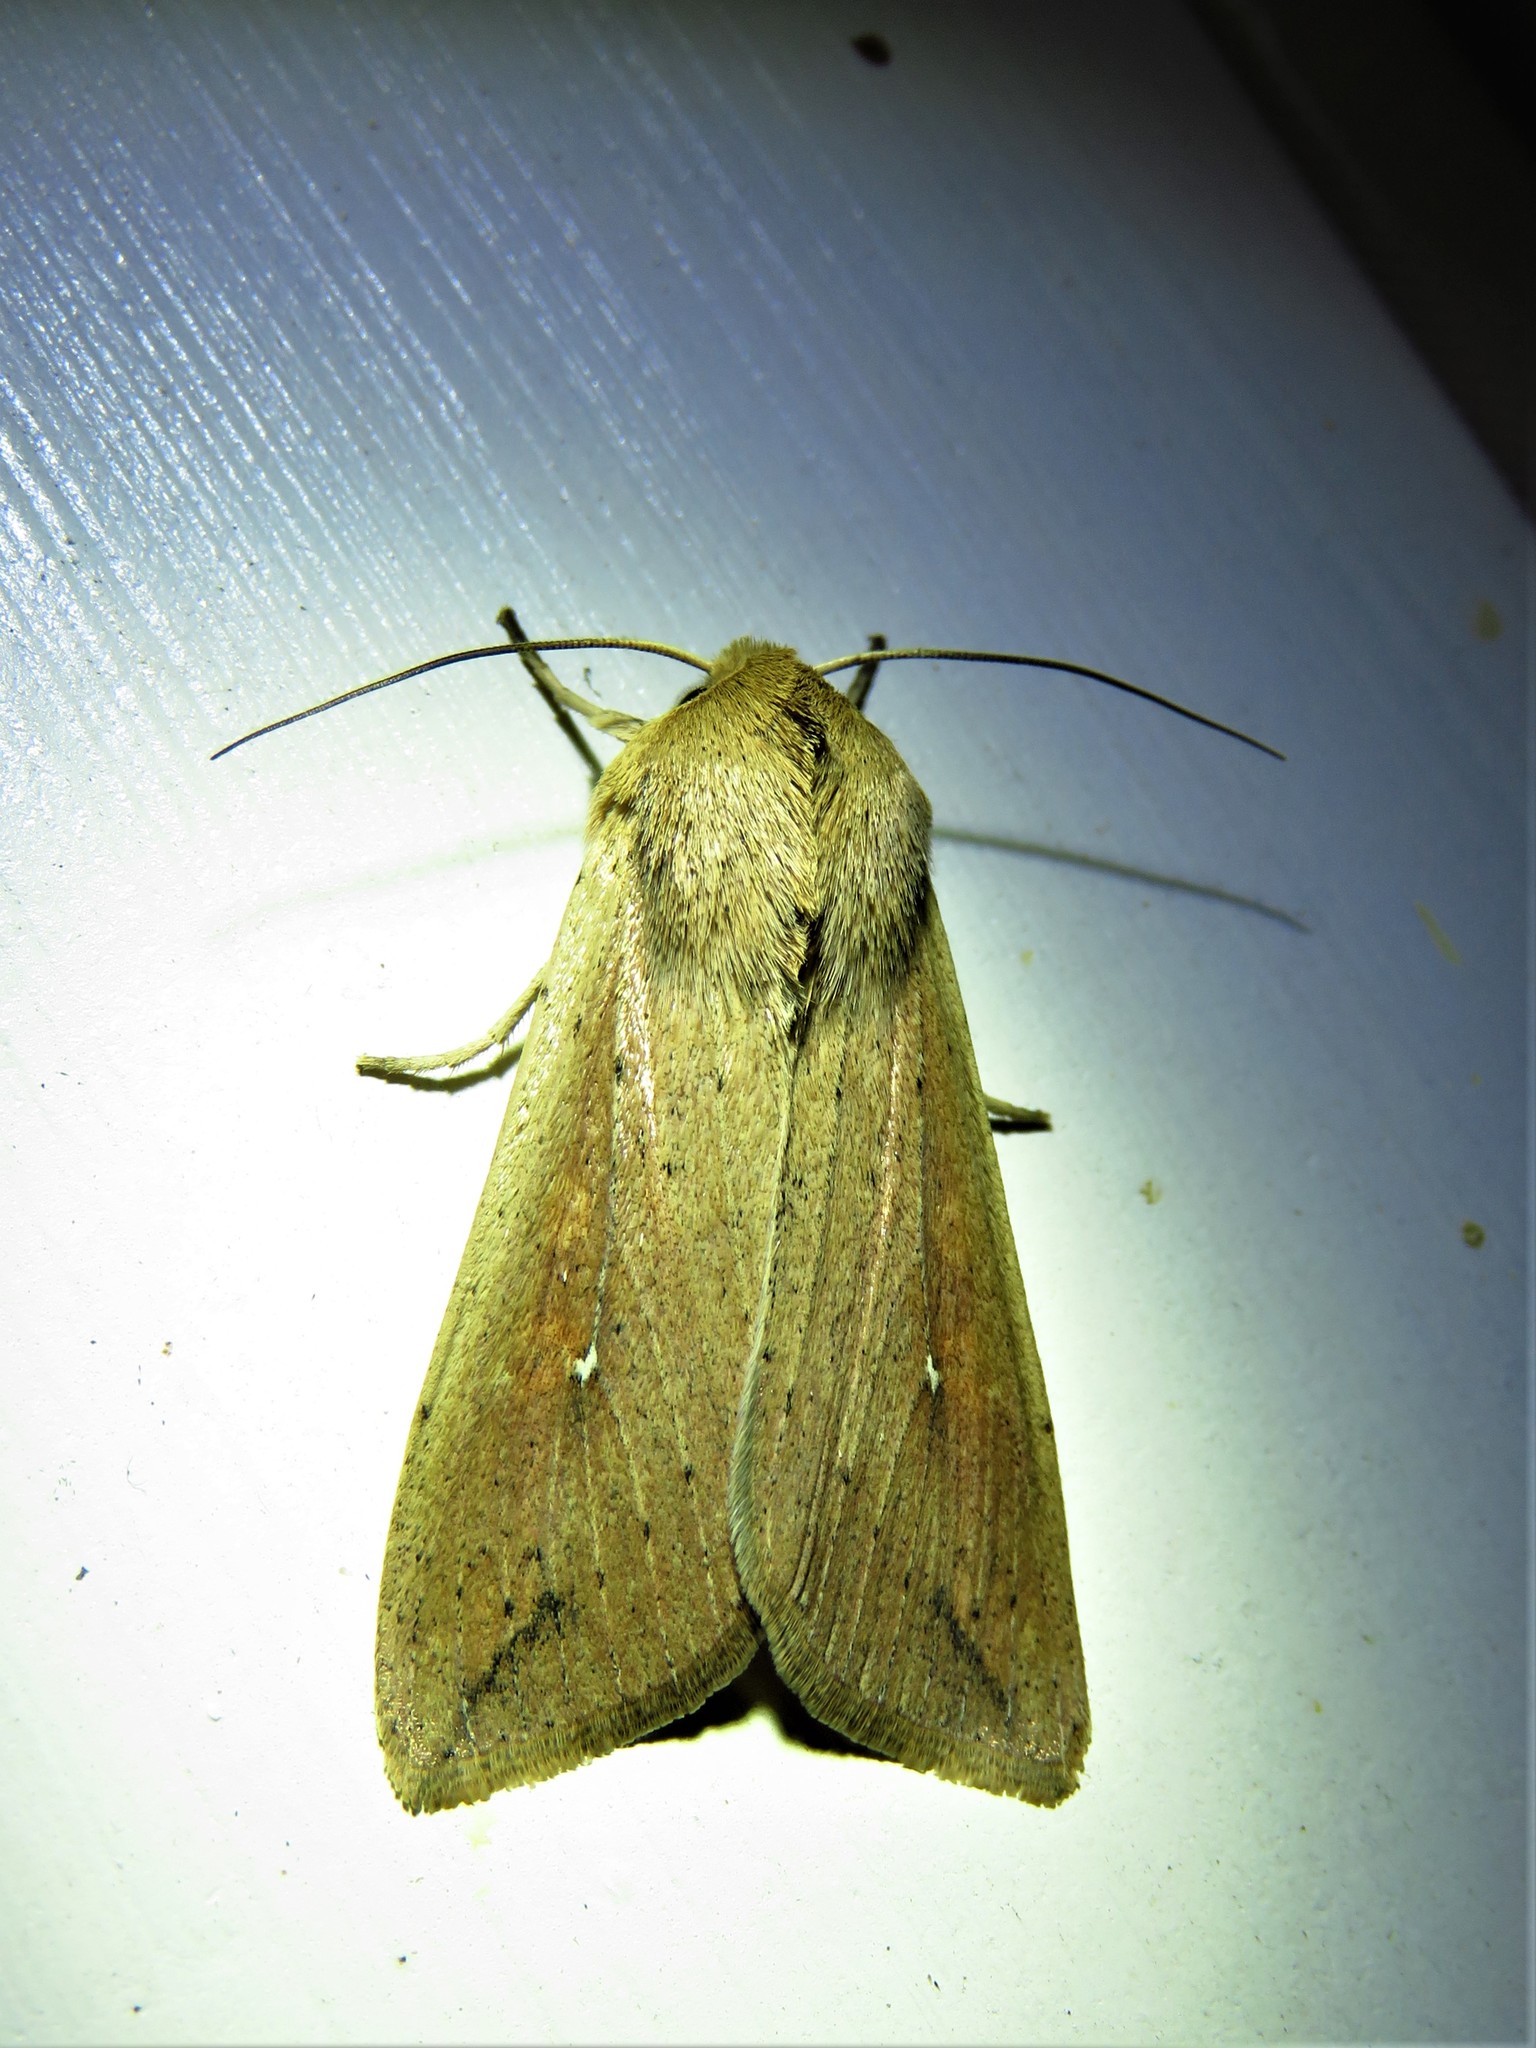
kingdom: Animalia
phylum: Arthropoda
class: Insecta
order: Lepidoptera
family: Noctuidae
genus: Mythimna
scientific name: Mythimna unipuncta
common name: White-speck
